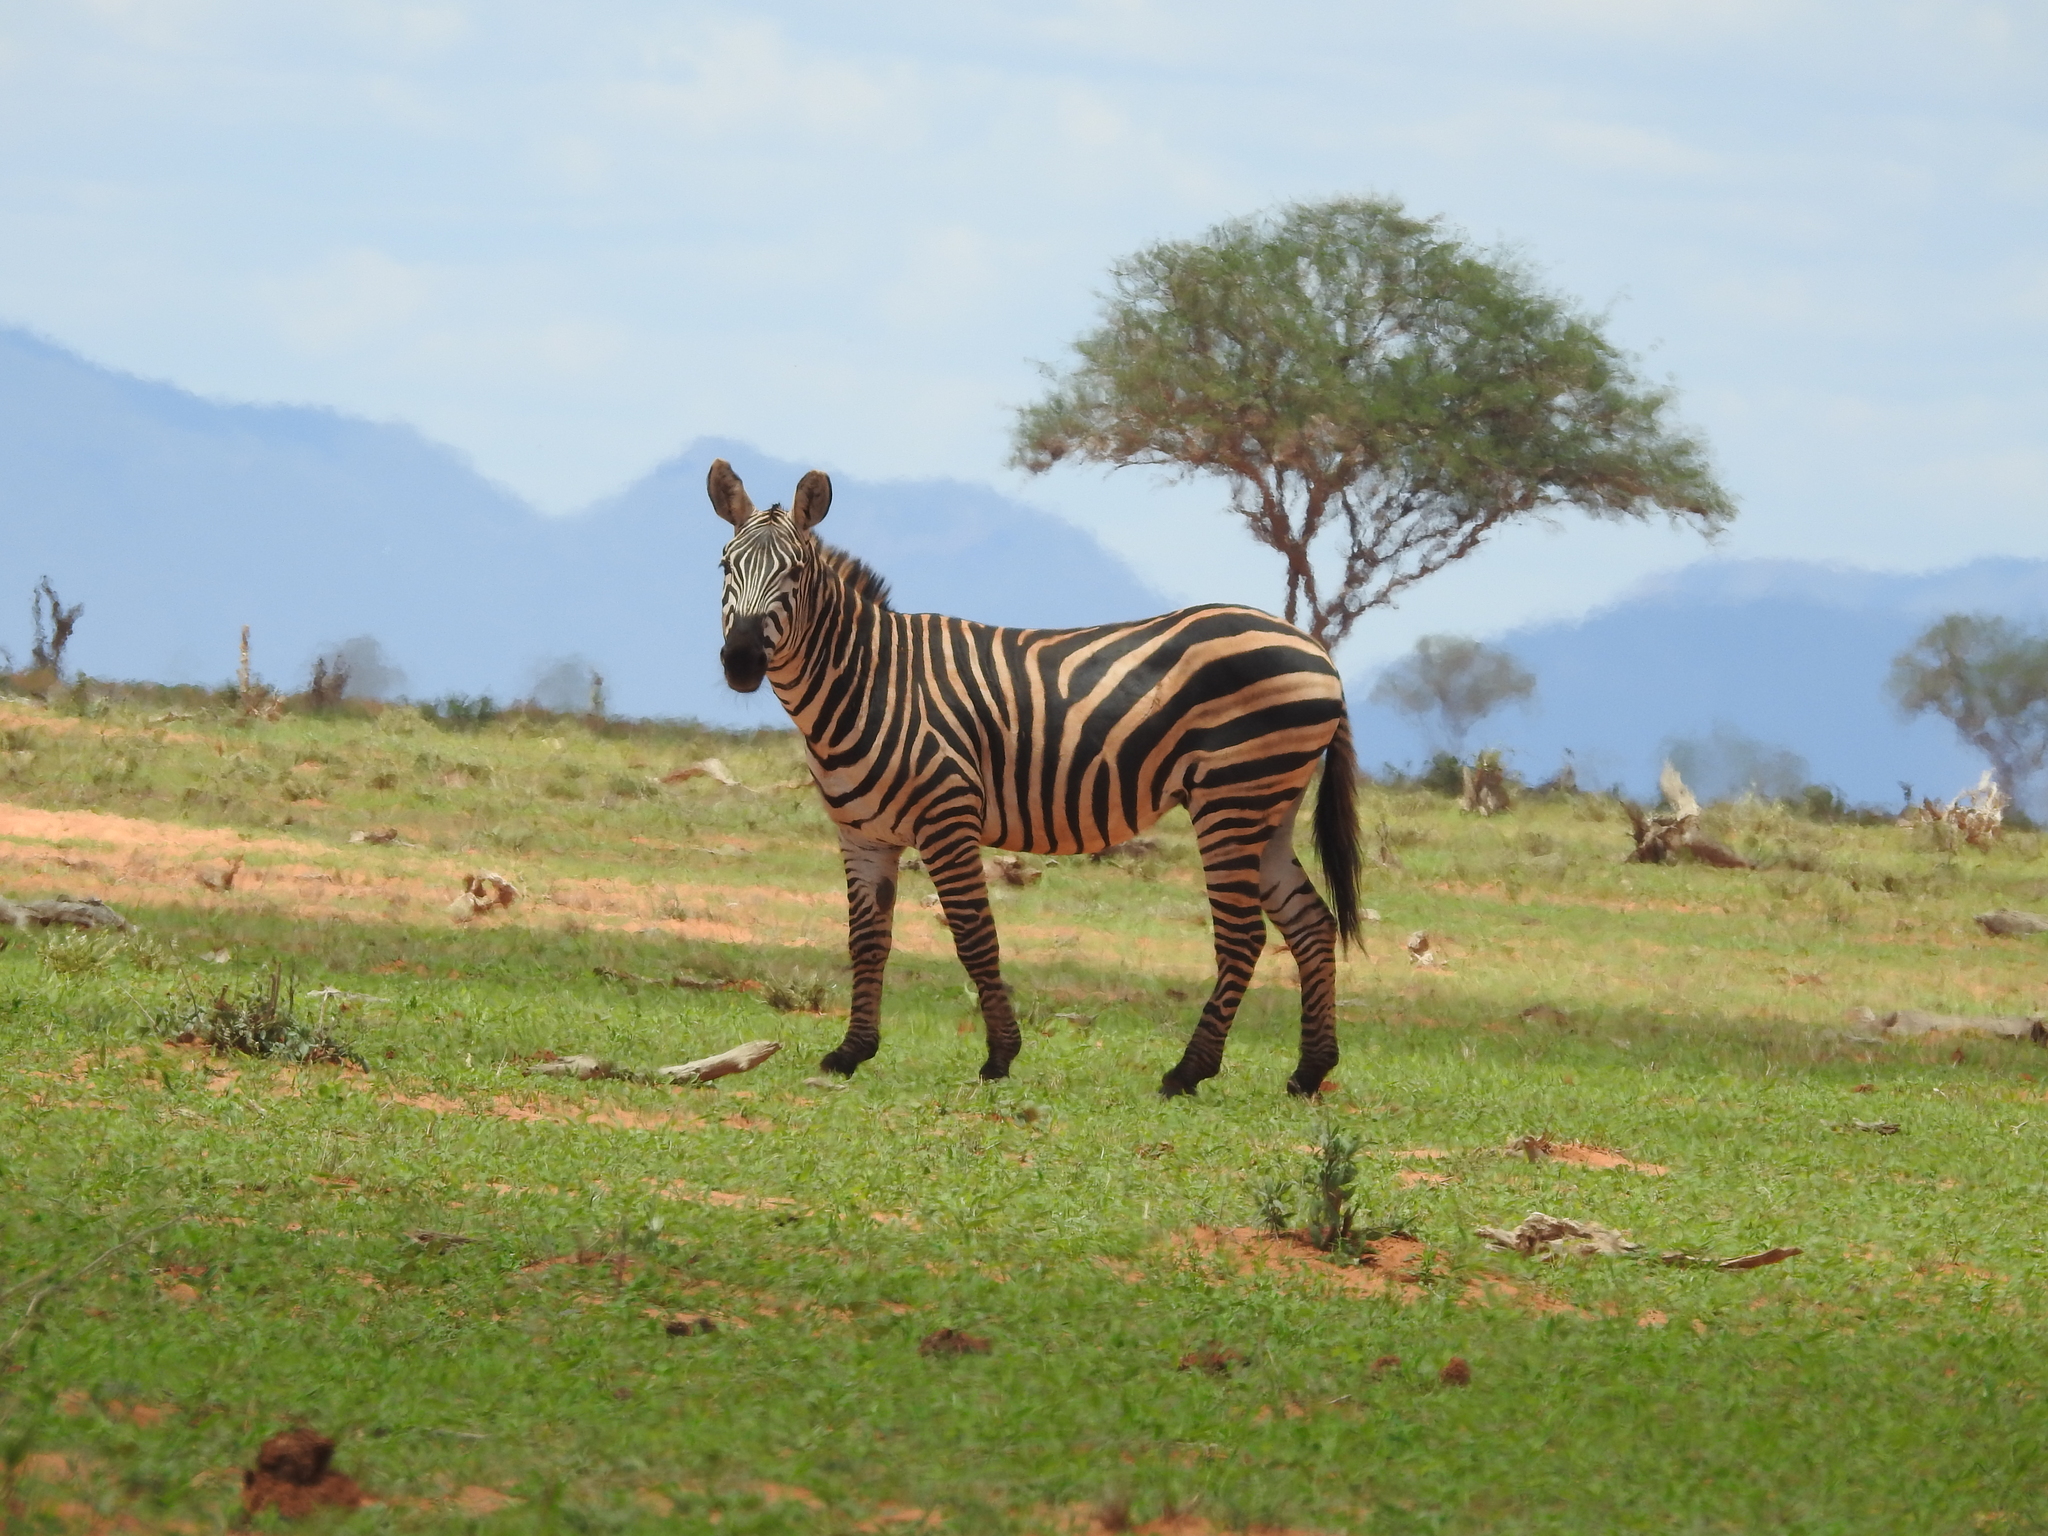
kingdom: Animalia
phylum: Chordata
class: Mammalia
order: Perissodactyla
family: Equidae
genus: Equus
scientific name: Equus quagga
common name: Plains zebra
